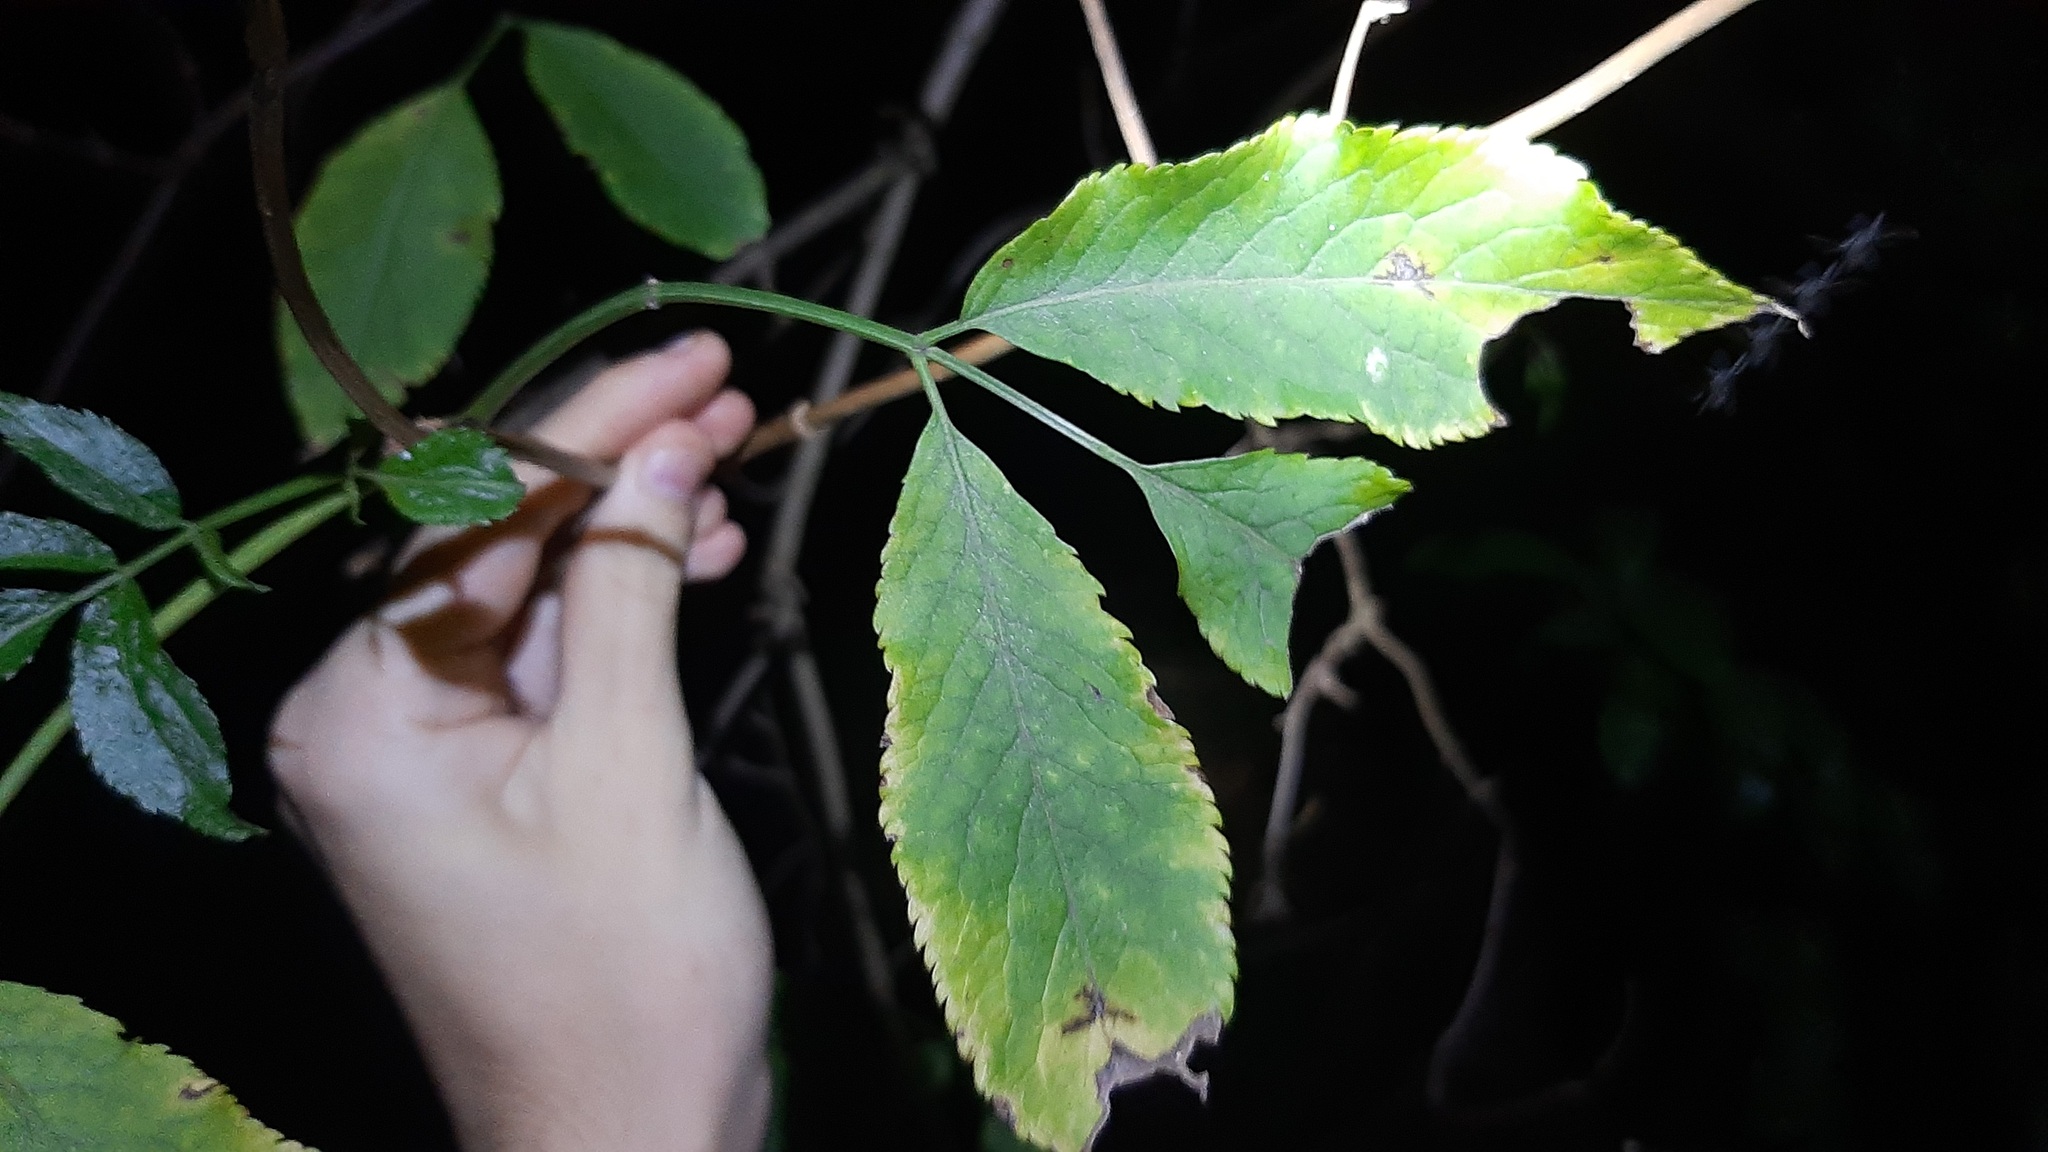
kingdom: Plantae
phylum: Tracheophyta
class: Magnoliopsida
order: Dipsacales
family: Viburnaceae
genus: Sambucus
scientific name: Sambucus nigra
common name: Elder
